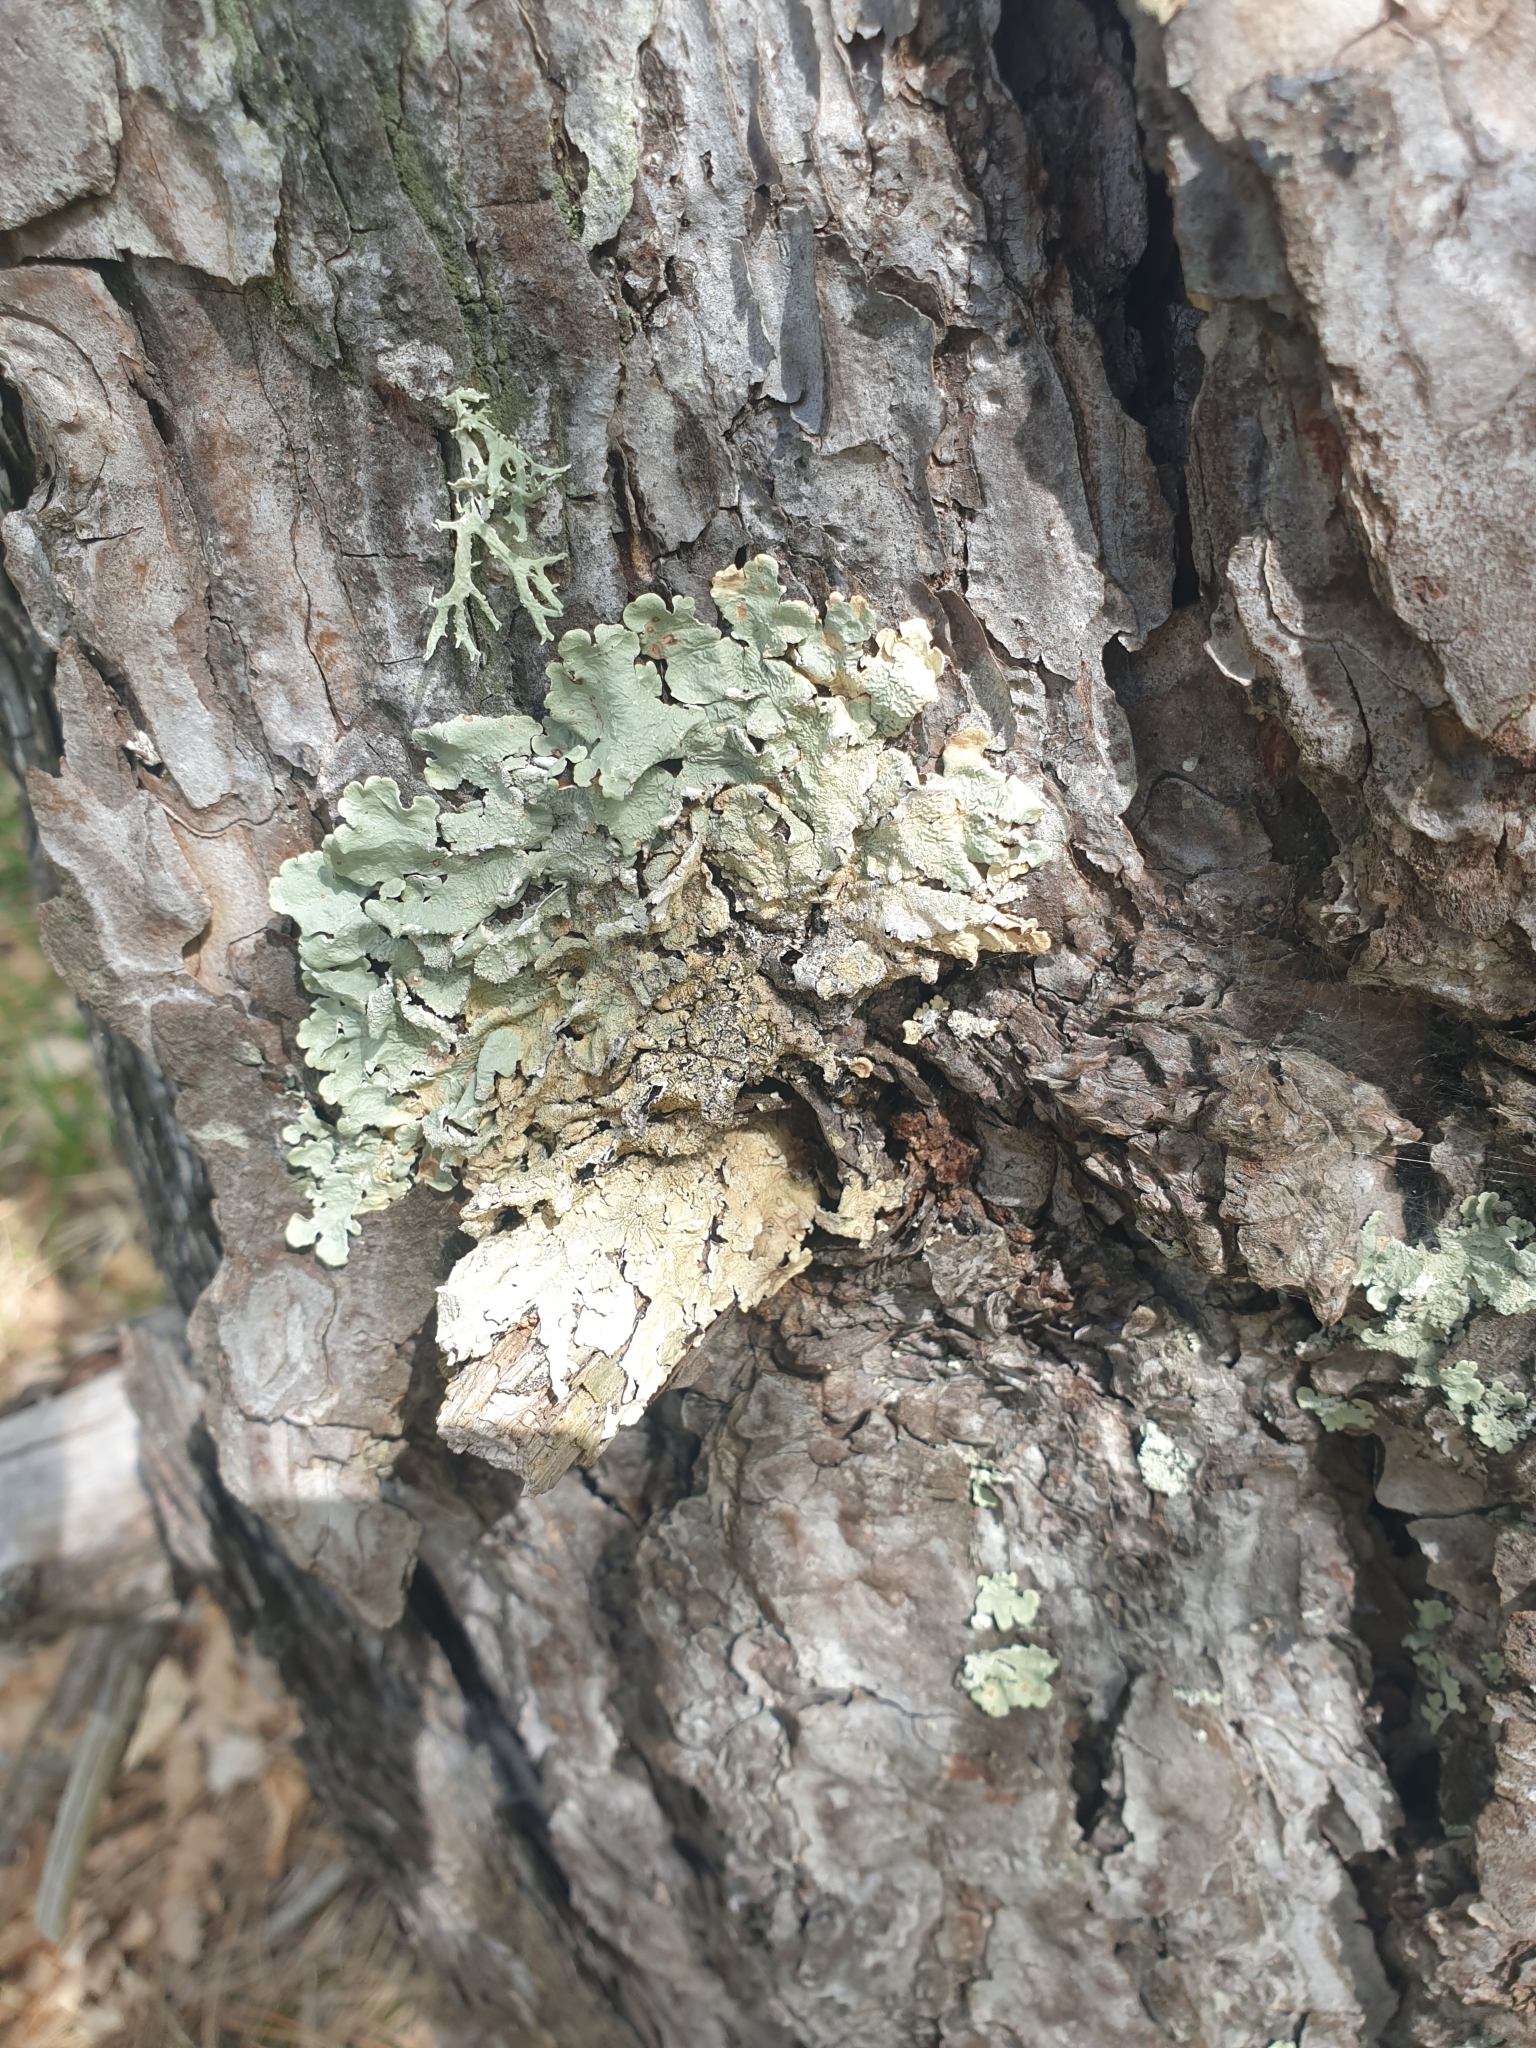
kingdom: Fungi
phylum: Ascomycota
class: Lecanoromycetes
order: Lecanorales
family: Parmeliaceae
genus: Flavoparmelia
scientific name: Flavoparmelia caperata
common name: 40-mile per hour lichen
